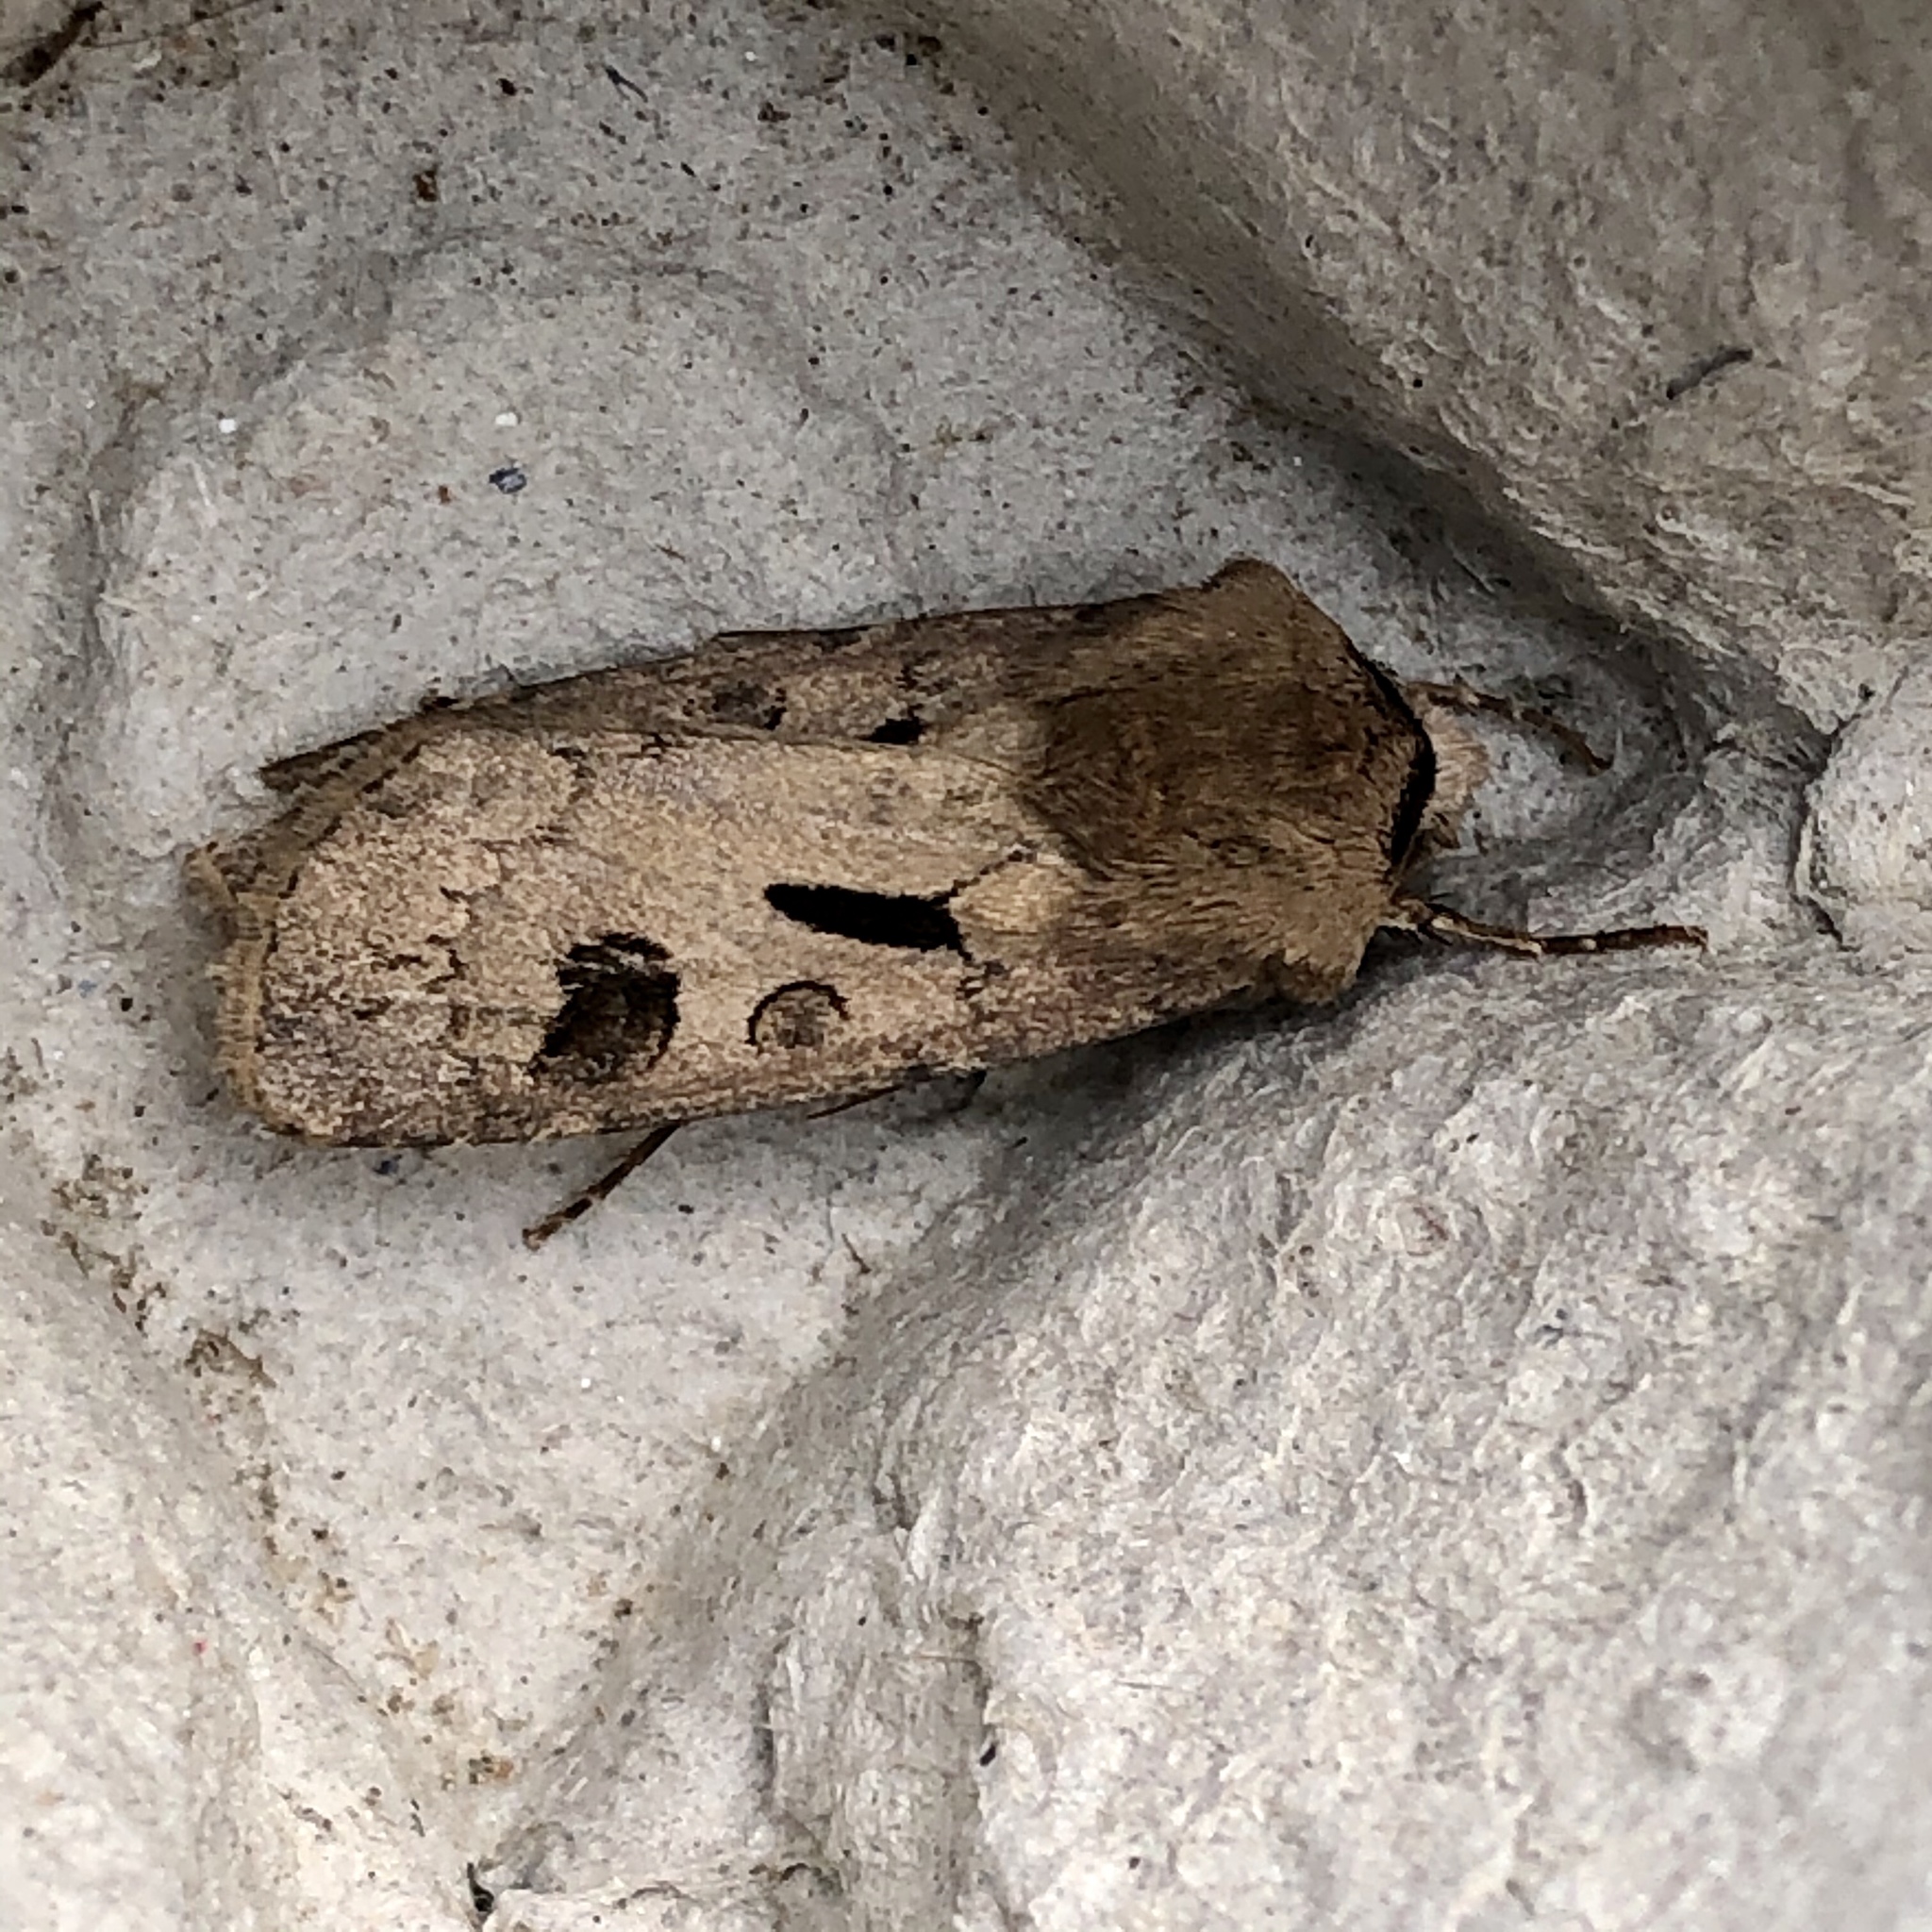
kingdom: Animalia
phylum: Arthropoda
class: Insecta
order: Lepidoptera
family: Noctuidae
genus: Agrotis
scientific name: Agrotis exclamationis
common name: Heart and dart
